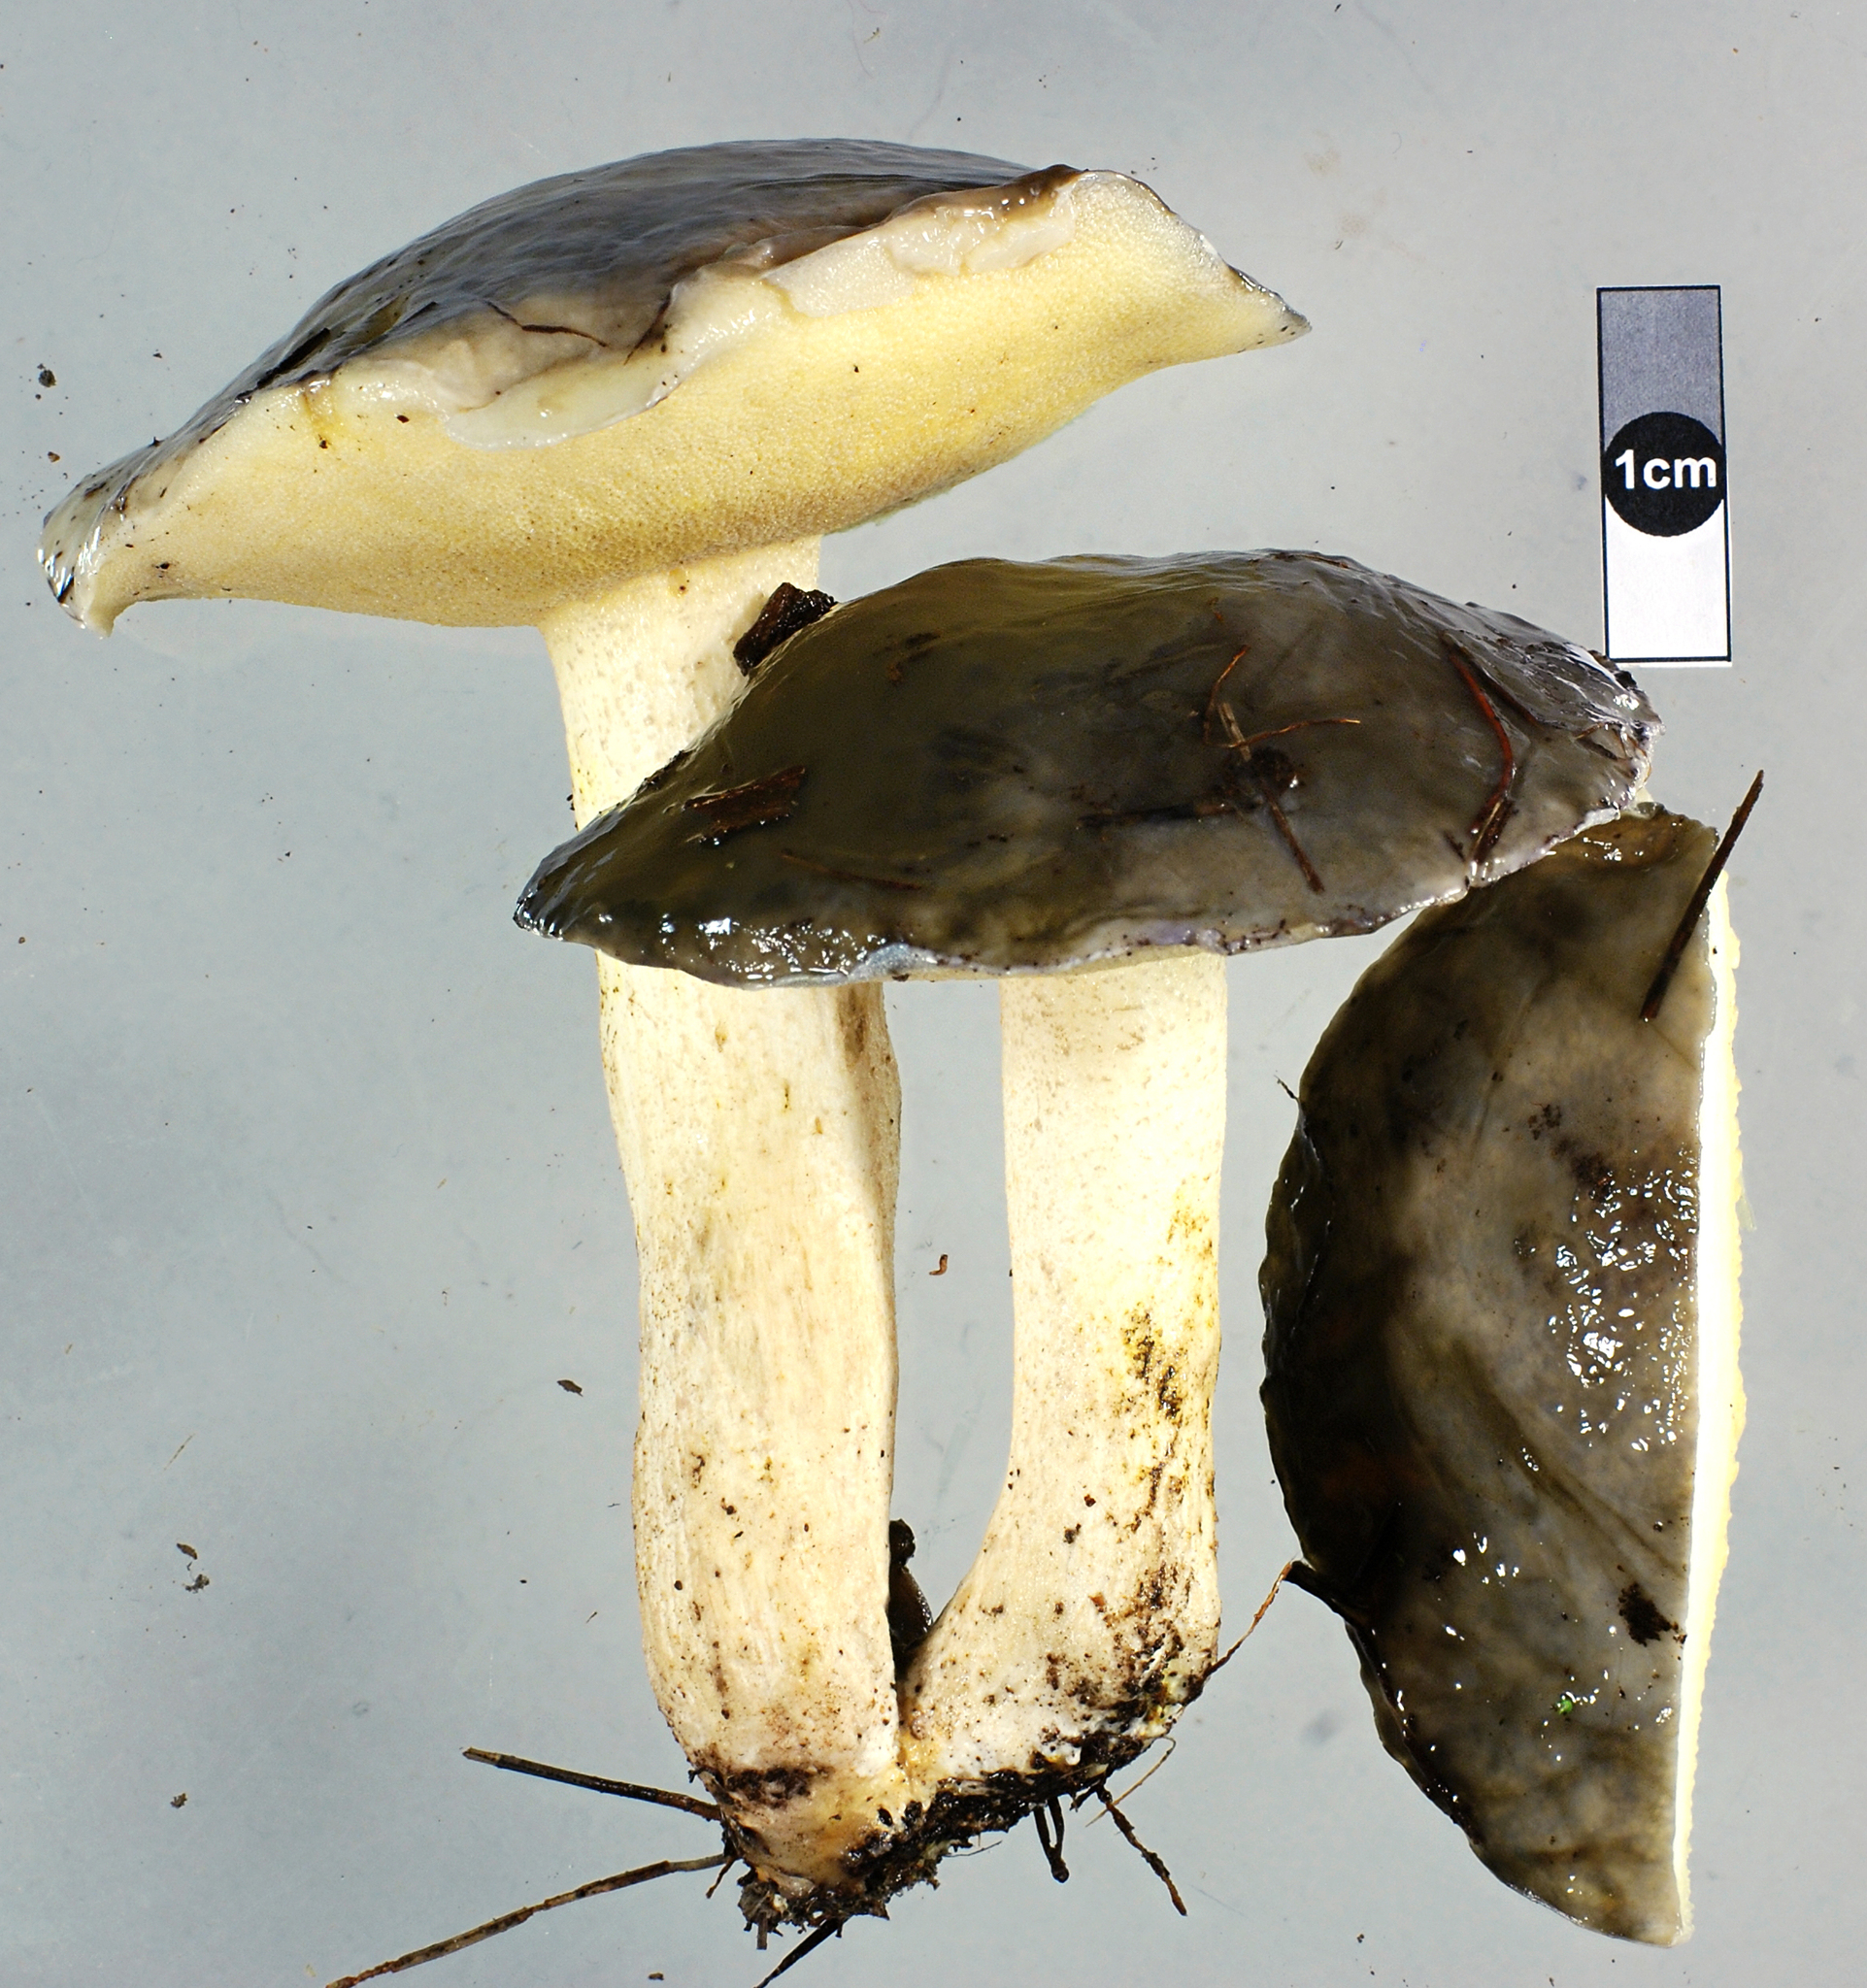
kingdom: Fungi
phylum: Basidiomycota
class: Agaricomycetes
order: Boletales
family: Suillaceae
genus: Suillus
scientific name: Suillus pungens
